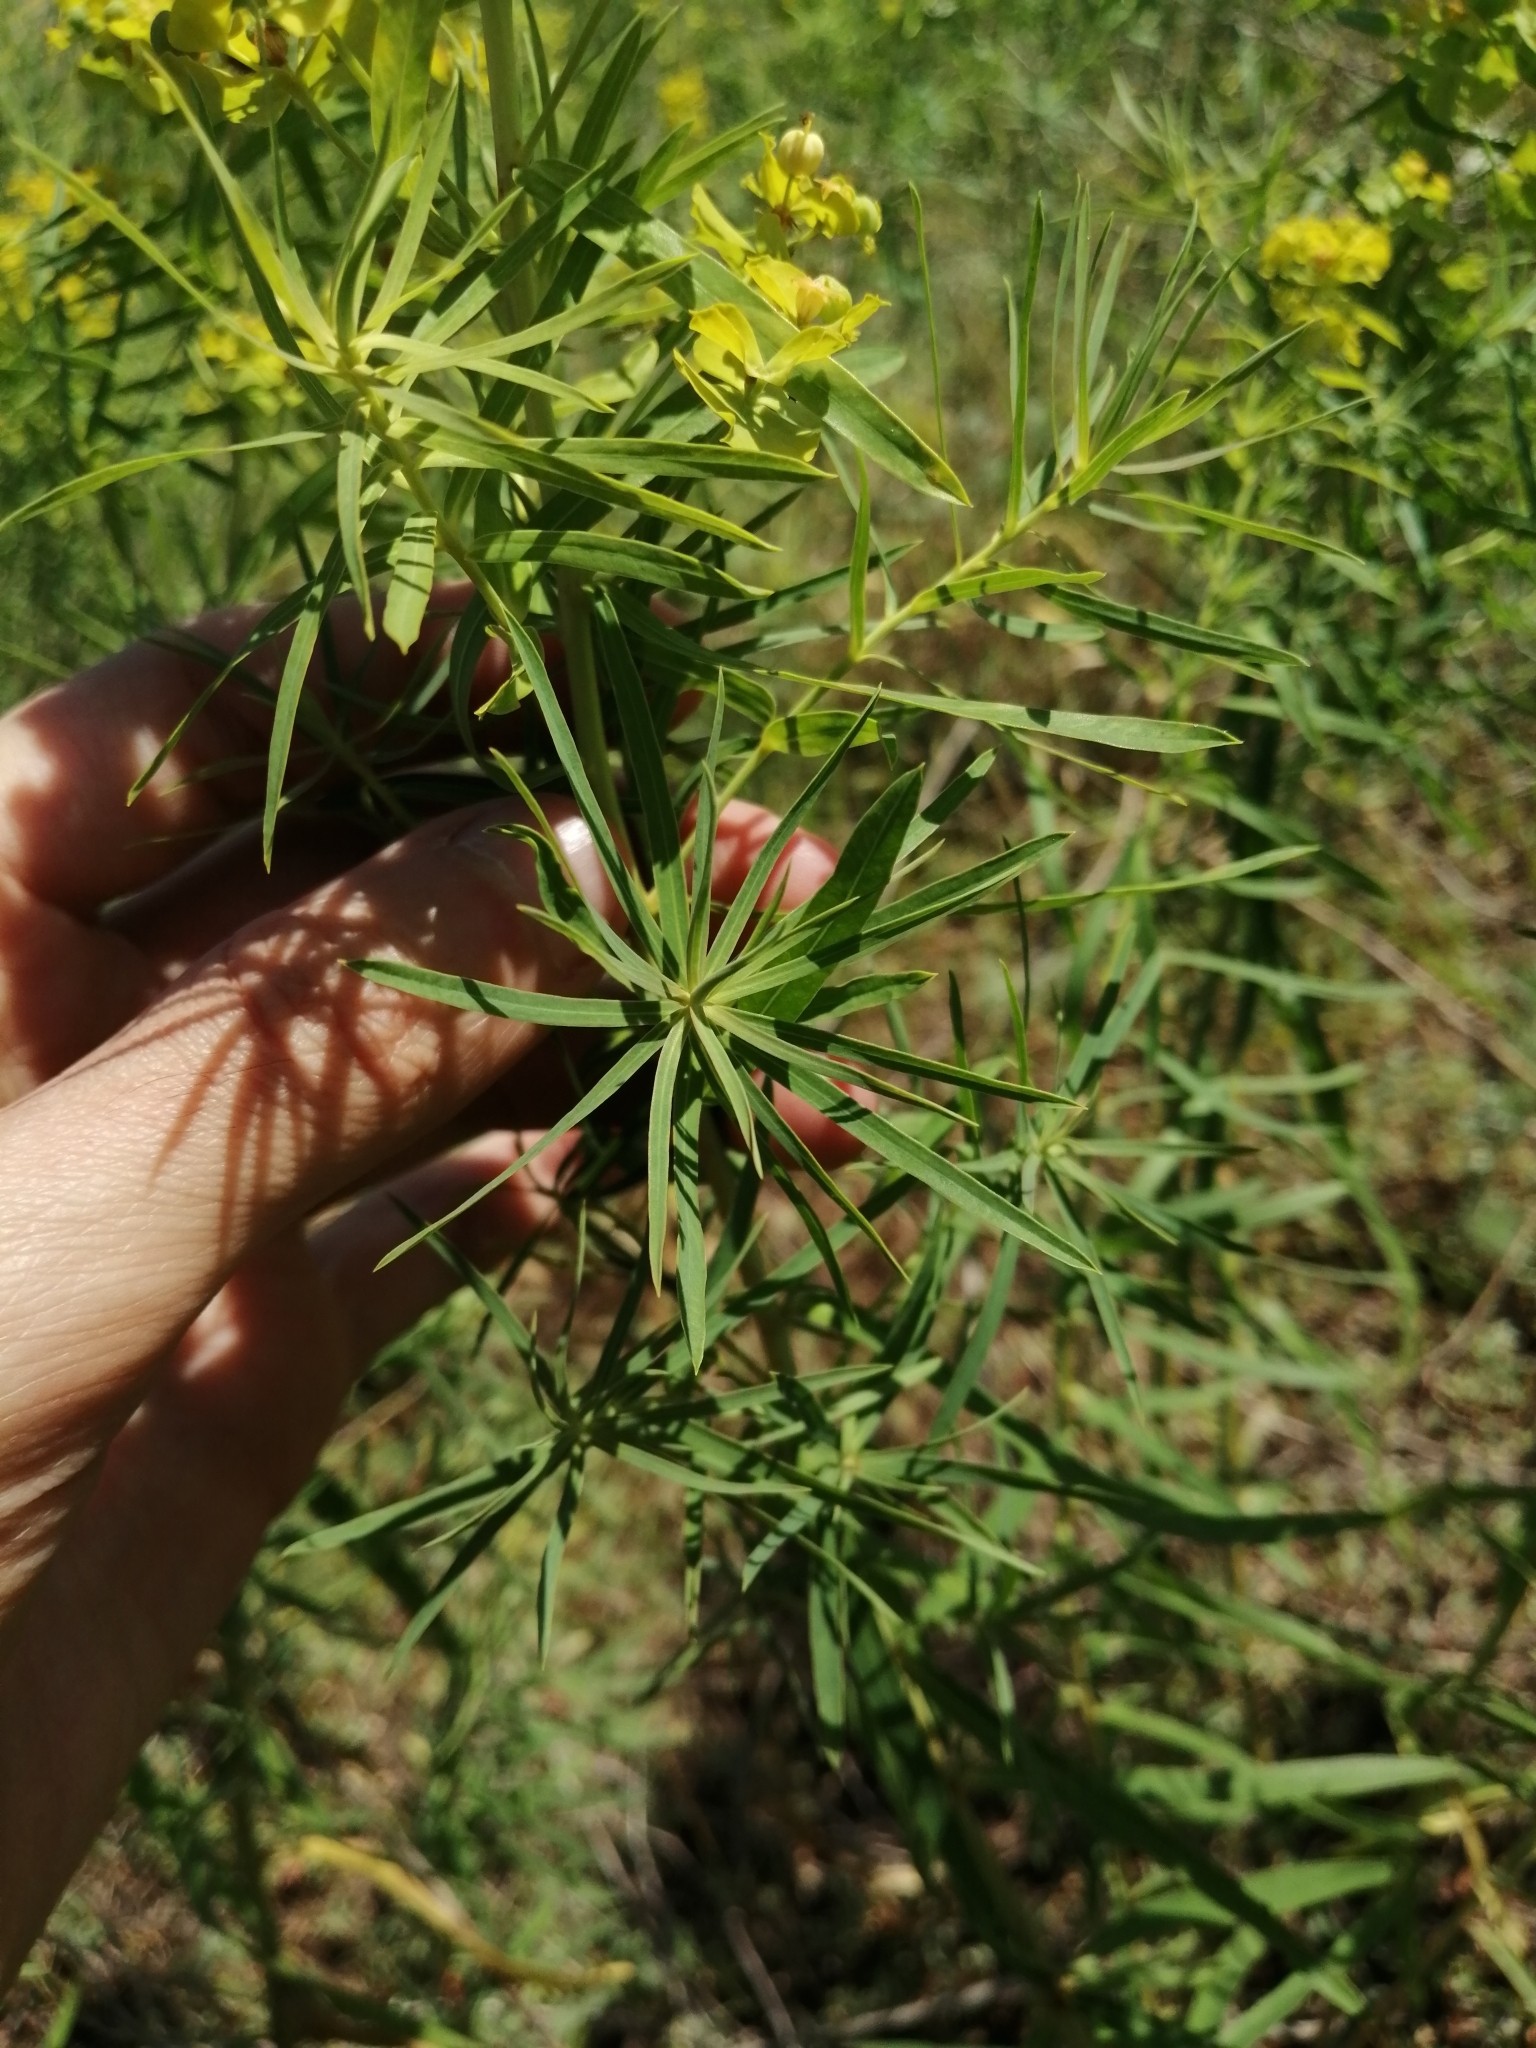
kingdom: Plantae
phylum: Tracheophyta
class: Magnoliopsida
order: Malpighiales
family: Euphorbiaceae
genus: Euphorbia
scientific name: Euphorbia uralensis
